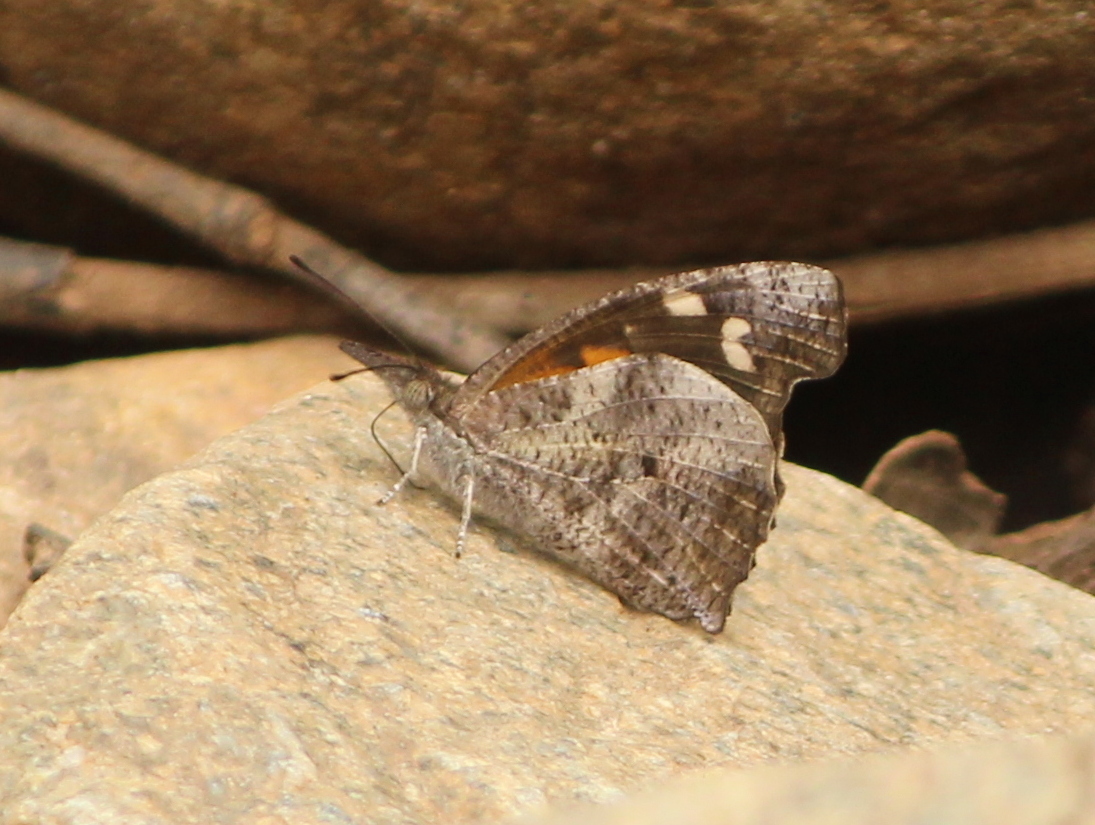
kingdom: Animalia
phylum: Arthropoda
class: Insecta
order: Lepidoptera
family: Nymphalidae
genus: Libythea
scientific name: Libythea laius
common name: African snout
